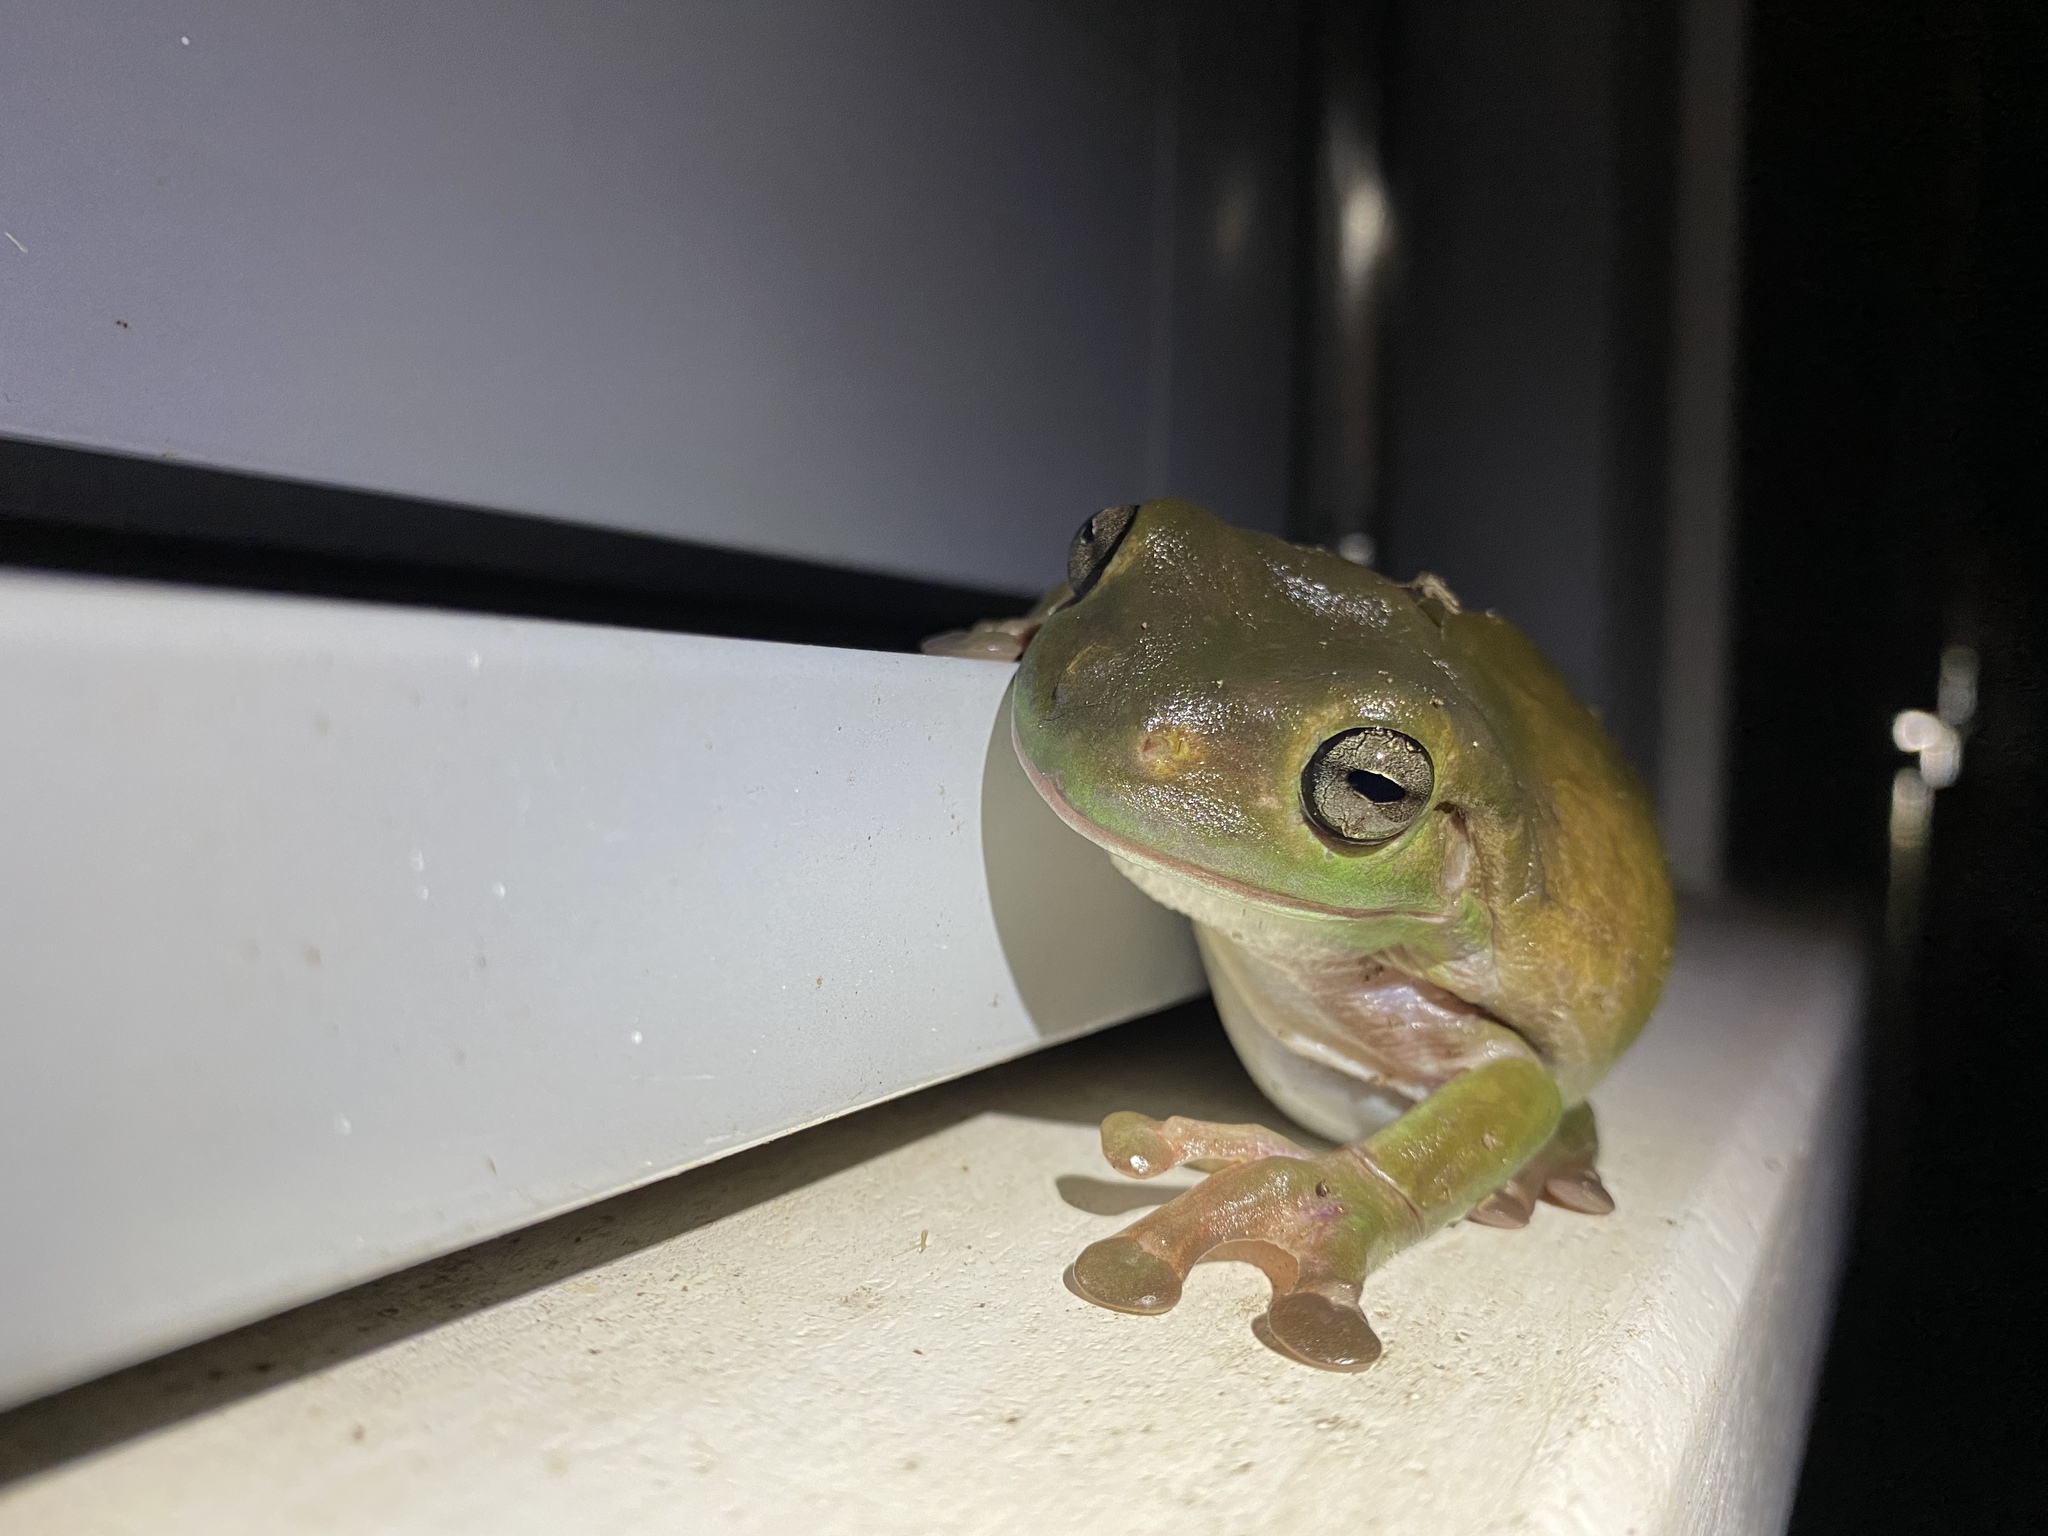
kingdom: Animalia
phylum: Chordata
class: Amphibia
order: Anura
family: Pelodryadidae
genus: Ranoidea
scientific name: Ranoidea caerulea
